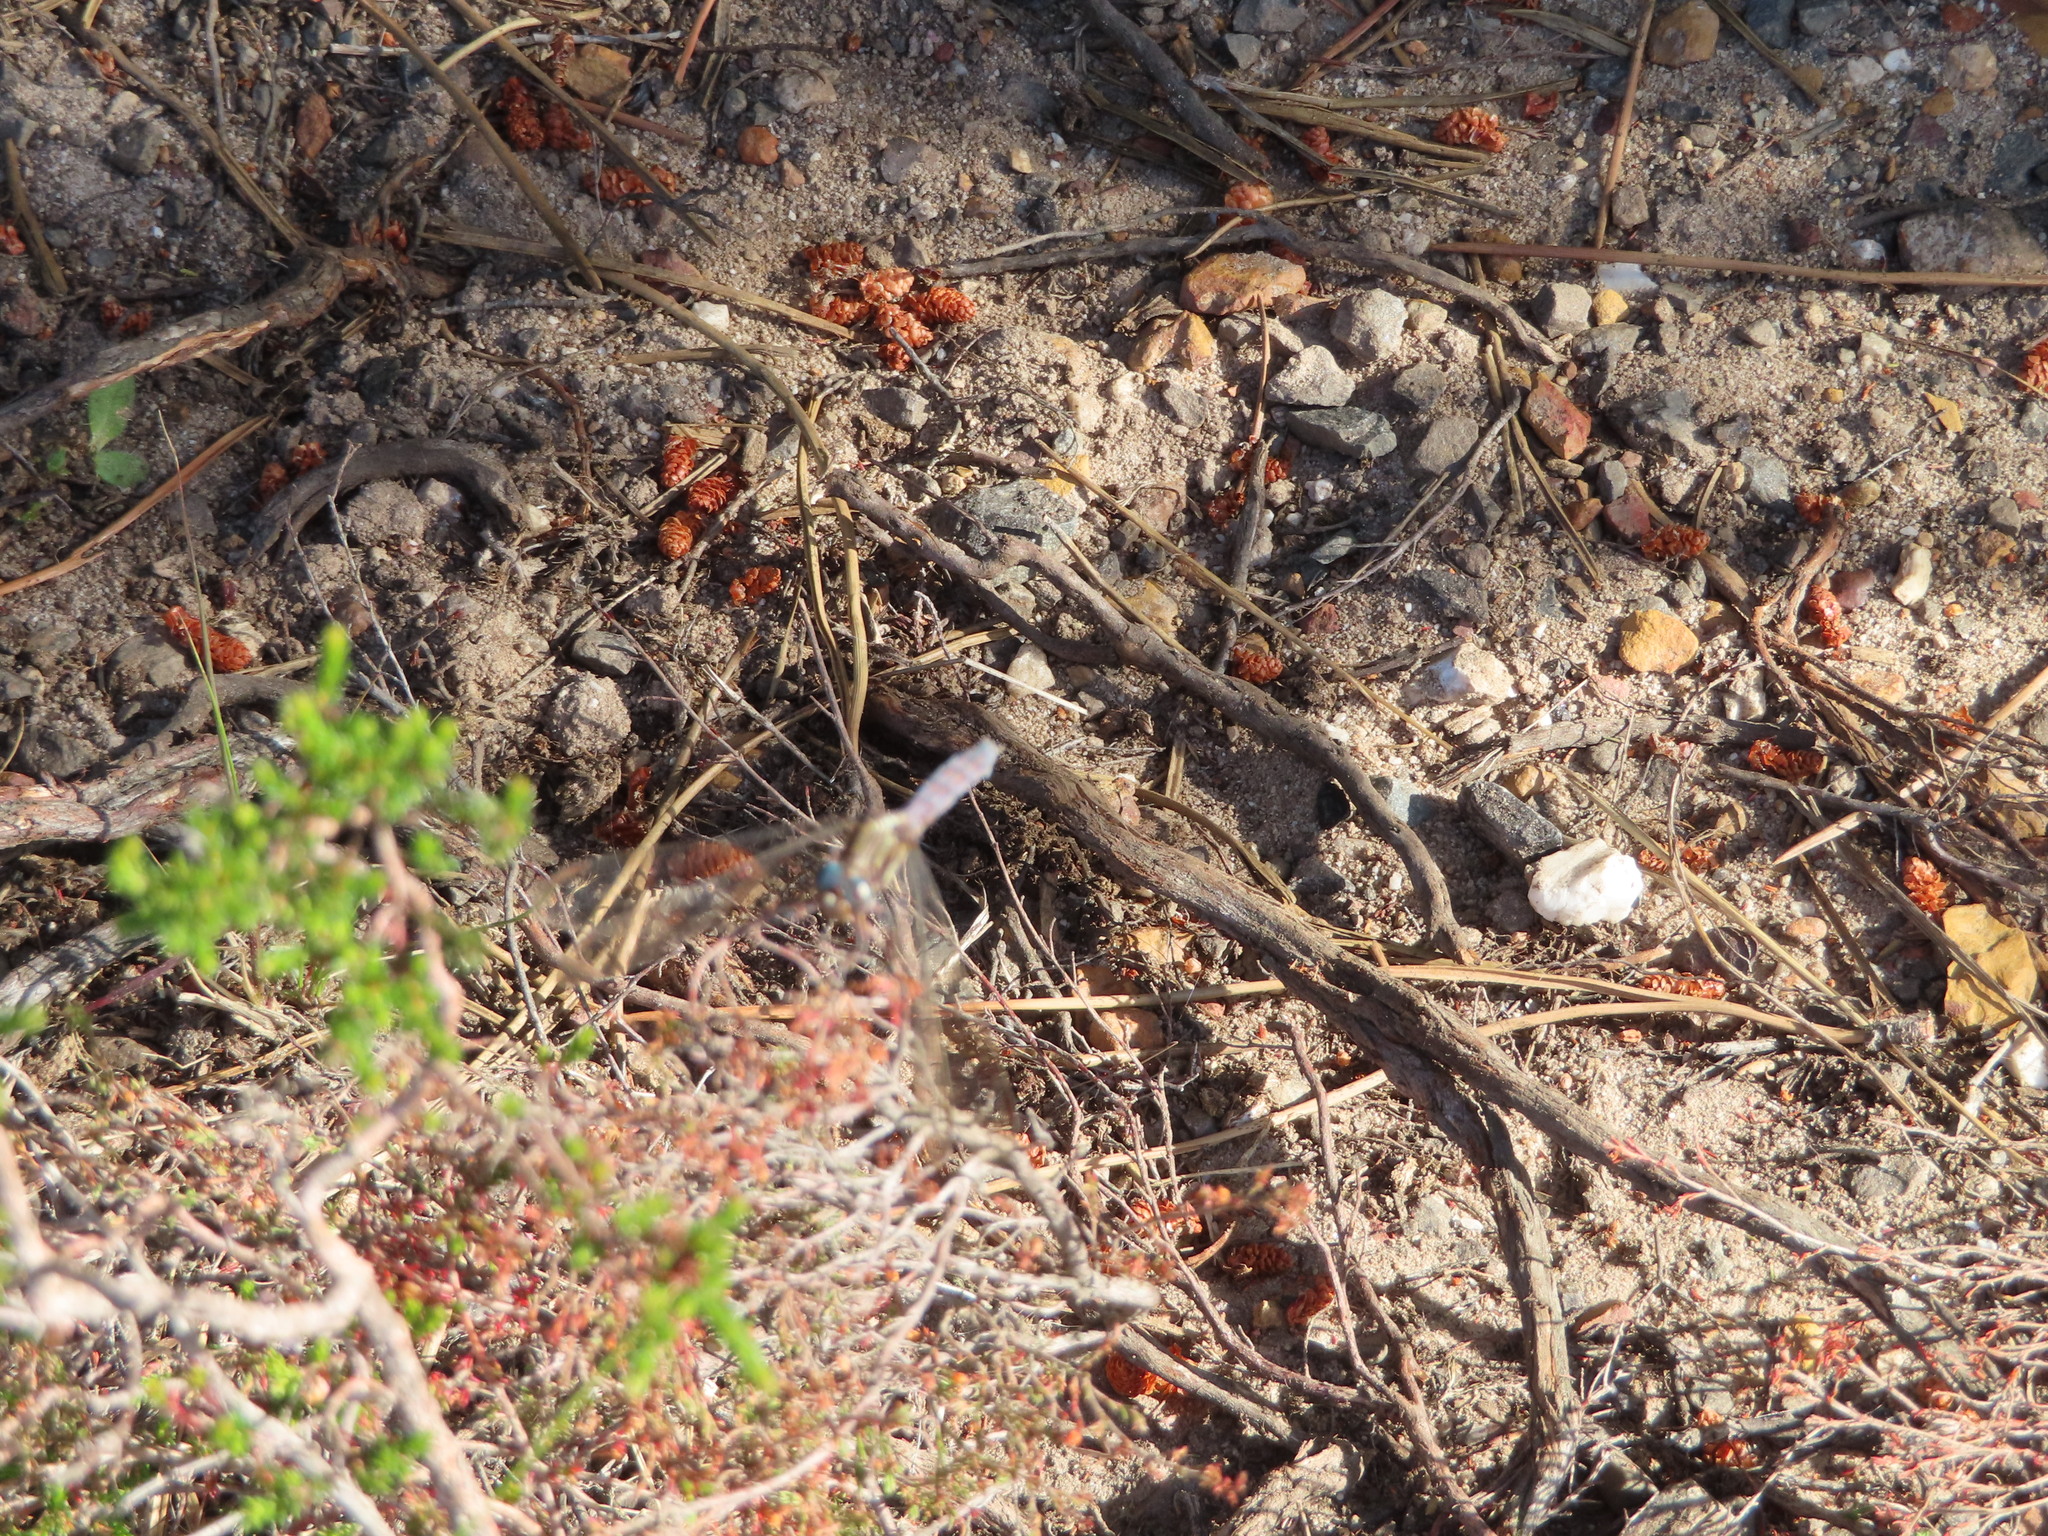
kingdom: Animalia
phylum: Arthropoda
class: Insecta
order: Odonata
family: Libellulidae
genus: Orthetrum
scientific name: Orthetrum julia
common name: Julia skimmer
